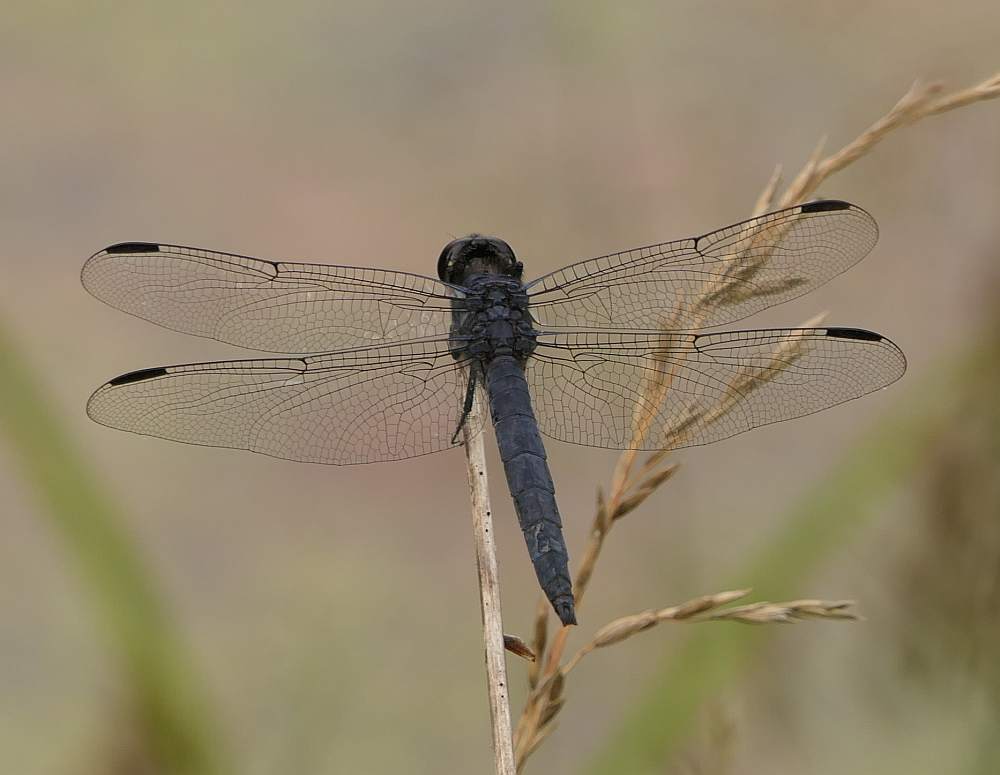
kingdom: Animalia
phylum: Arthropoda
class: Insecta
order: Odonata
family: Libellulidae
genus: Libellula
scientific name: Libellula incesta
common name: Slaty skimmer
